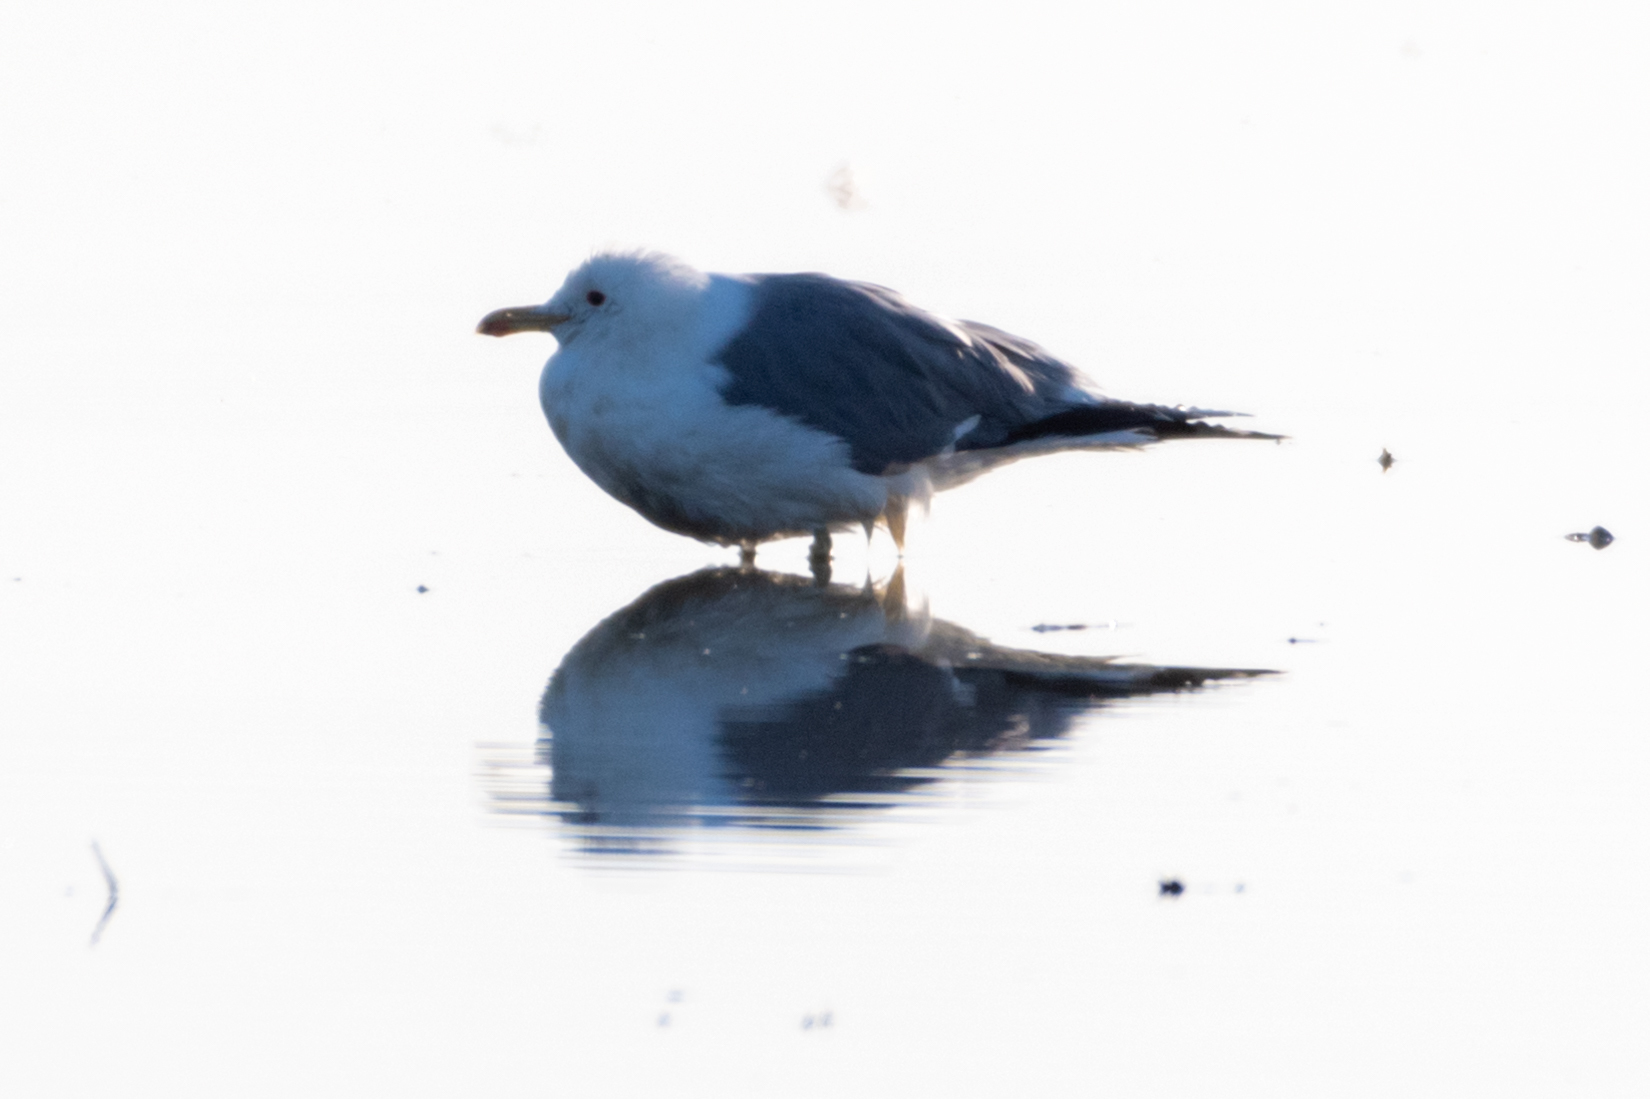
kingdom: Animalia
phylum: Chordata
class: Aves
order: Charadriiformes
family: Laridae
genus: Larus
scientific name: Larus californicus
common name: California gull
